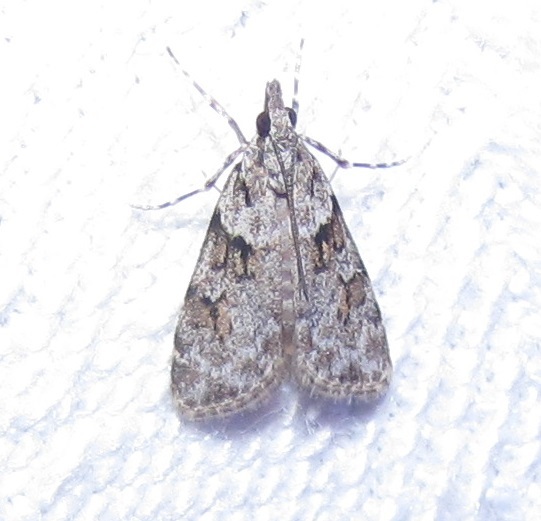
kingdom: Animalia
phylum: Arthropoda
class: Insecta
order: Lepidoptera
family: Crambidae
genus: Scoparia
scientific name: Scoparia biplagialis
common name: Double-striped scoparia moth
